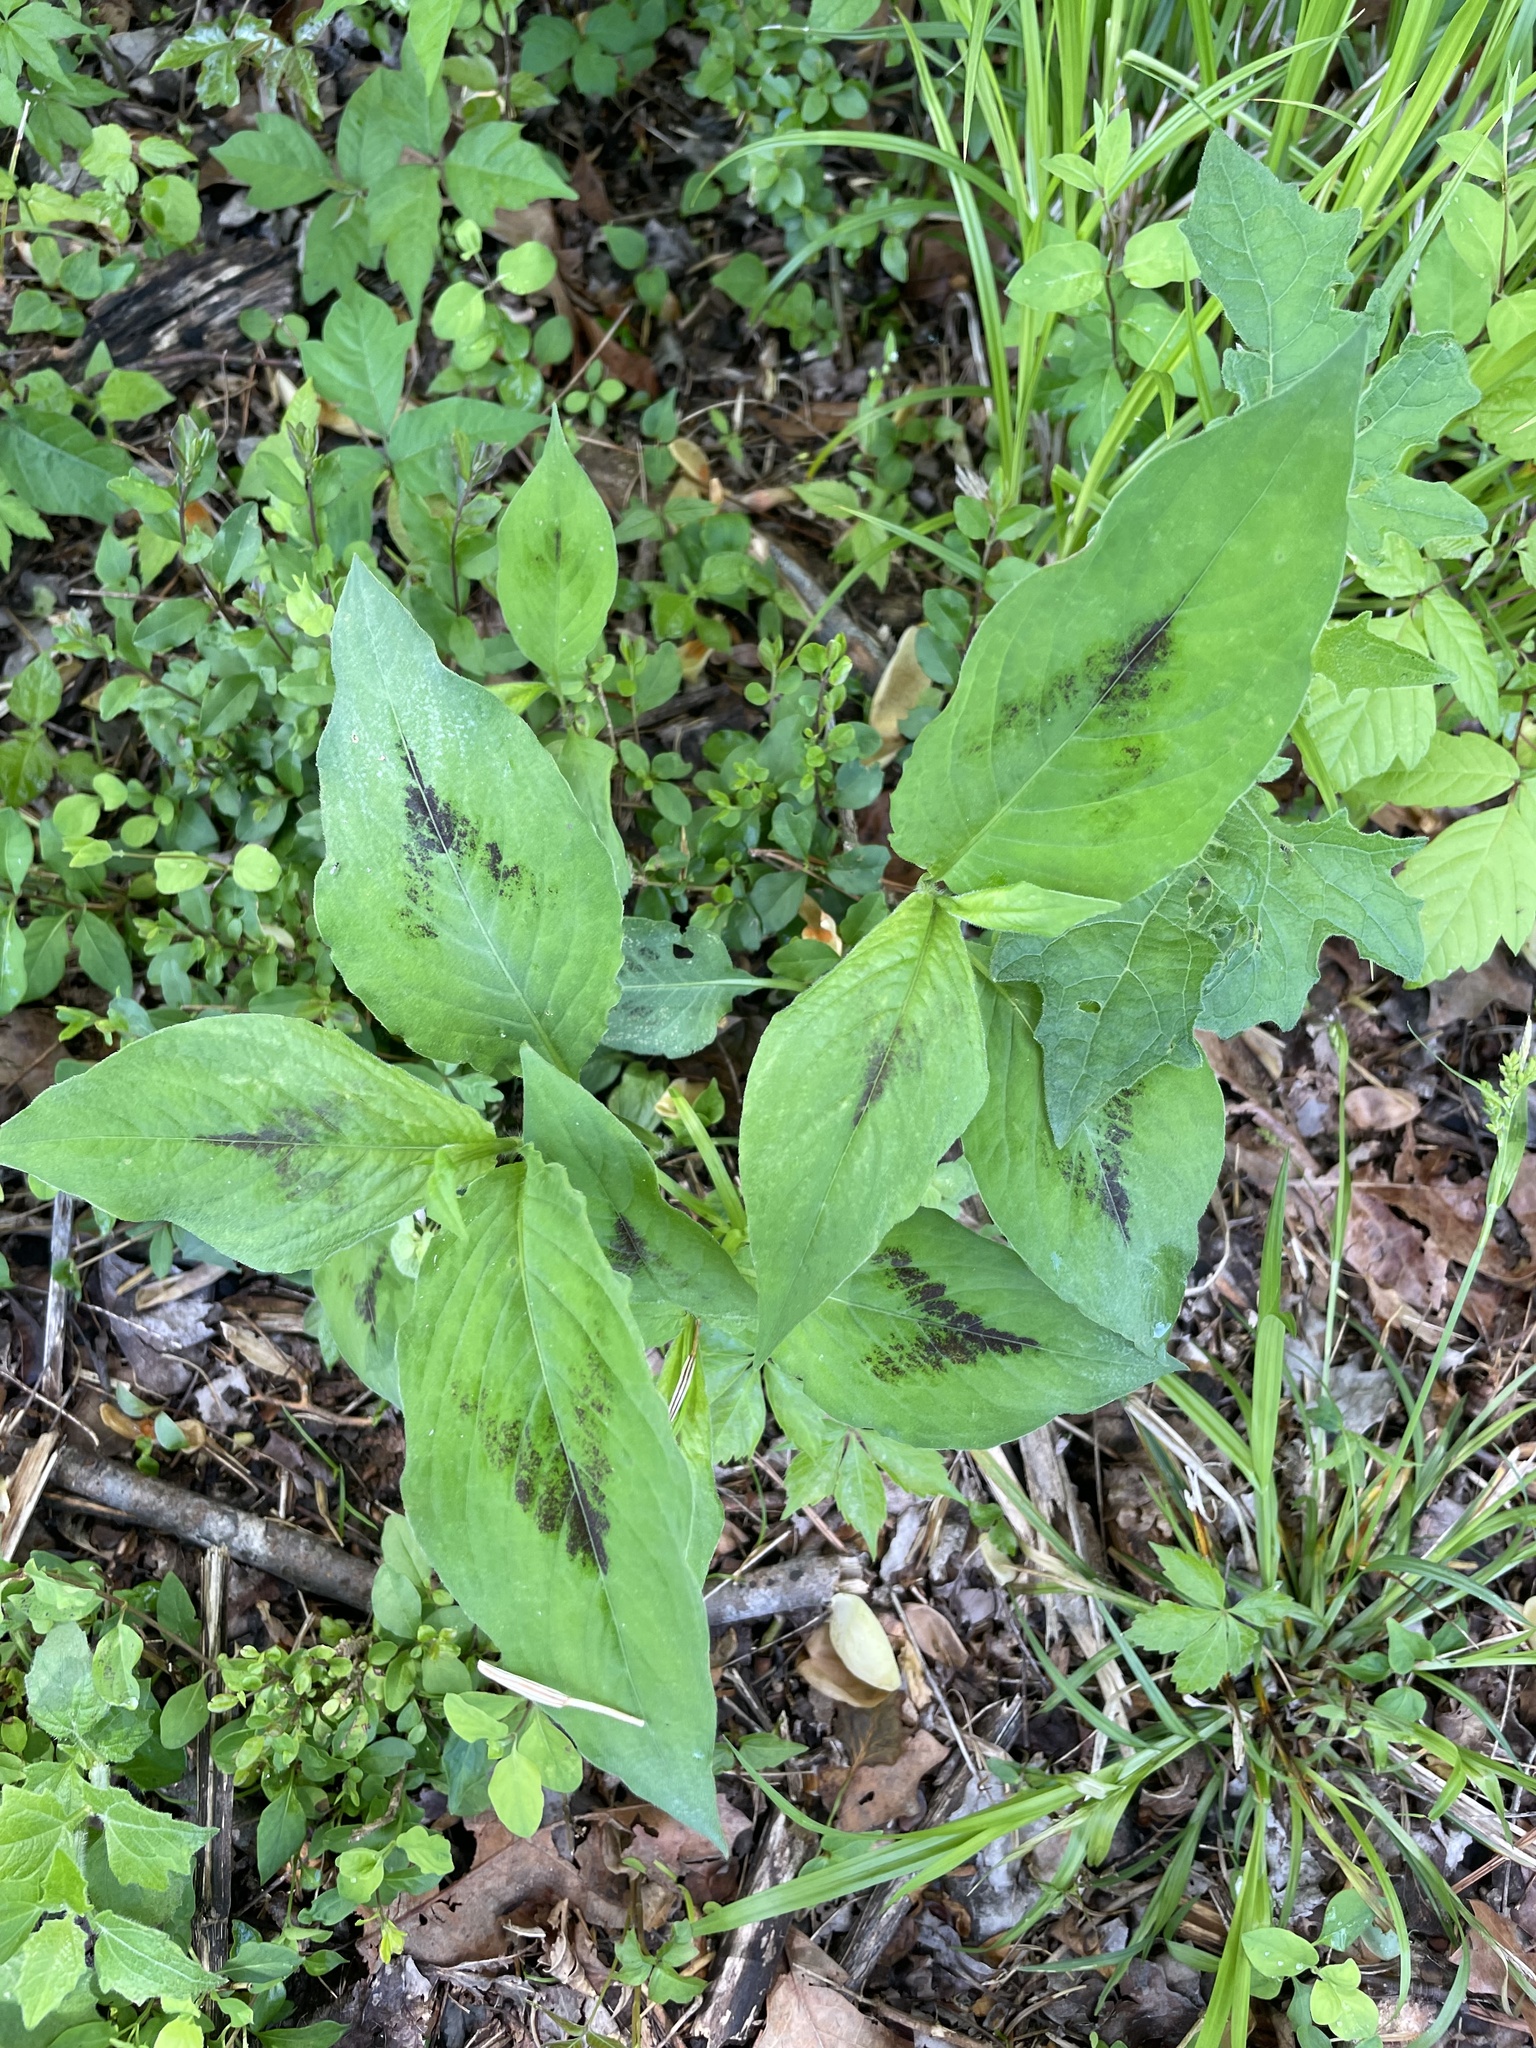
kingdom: Plantae
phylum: Tracheophyta
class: Magnoliopsida
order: Caryophyllales
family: Polygonaceae
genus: Persicaria
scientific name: Persicaria virginiana
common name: Jumpseed
